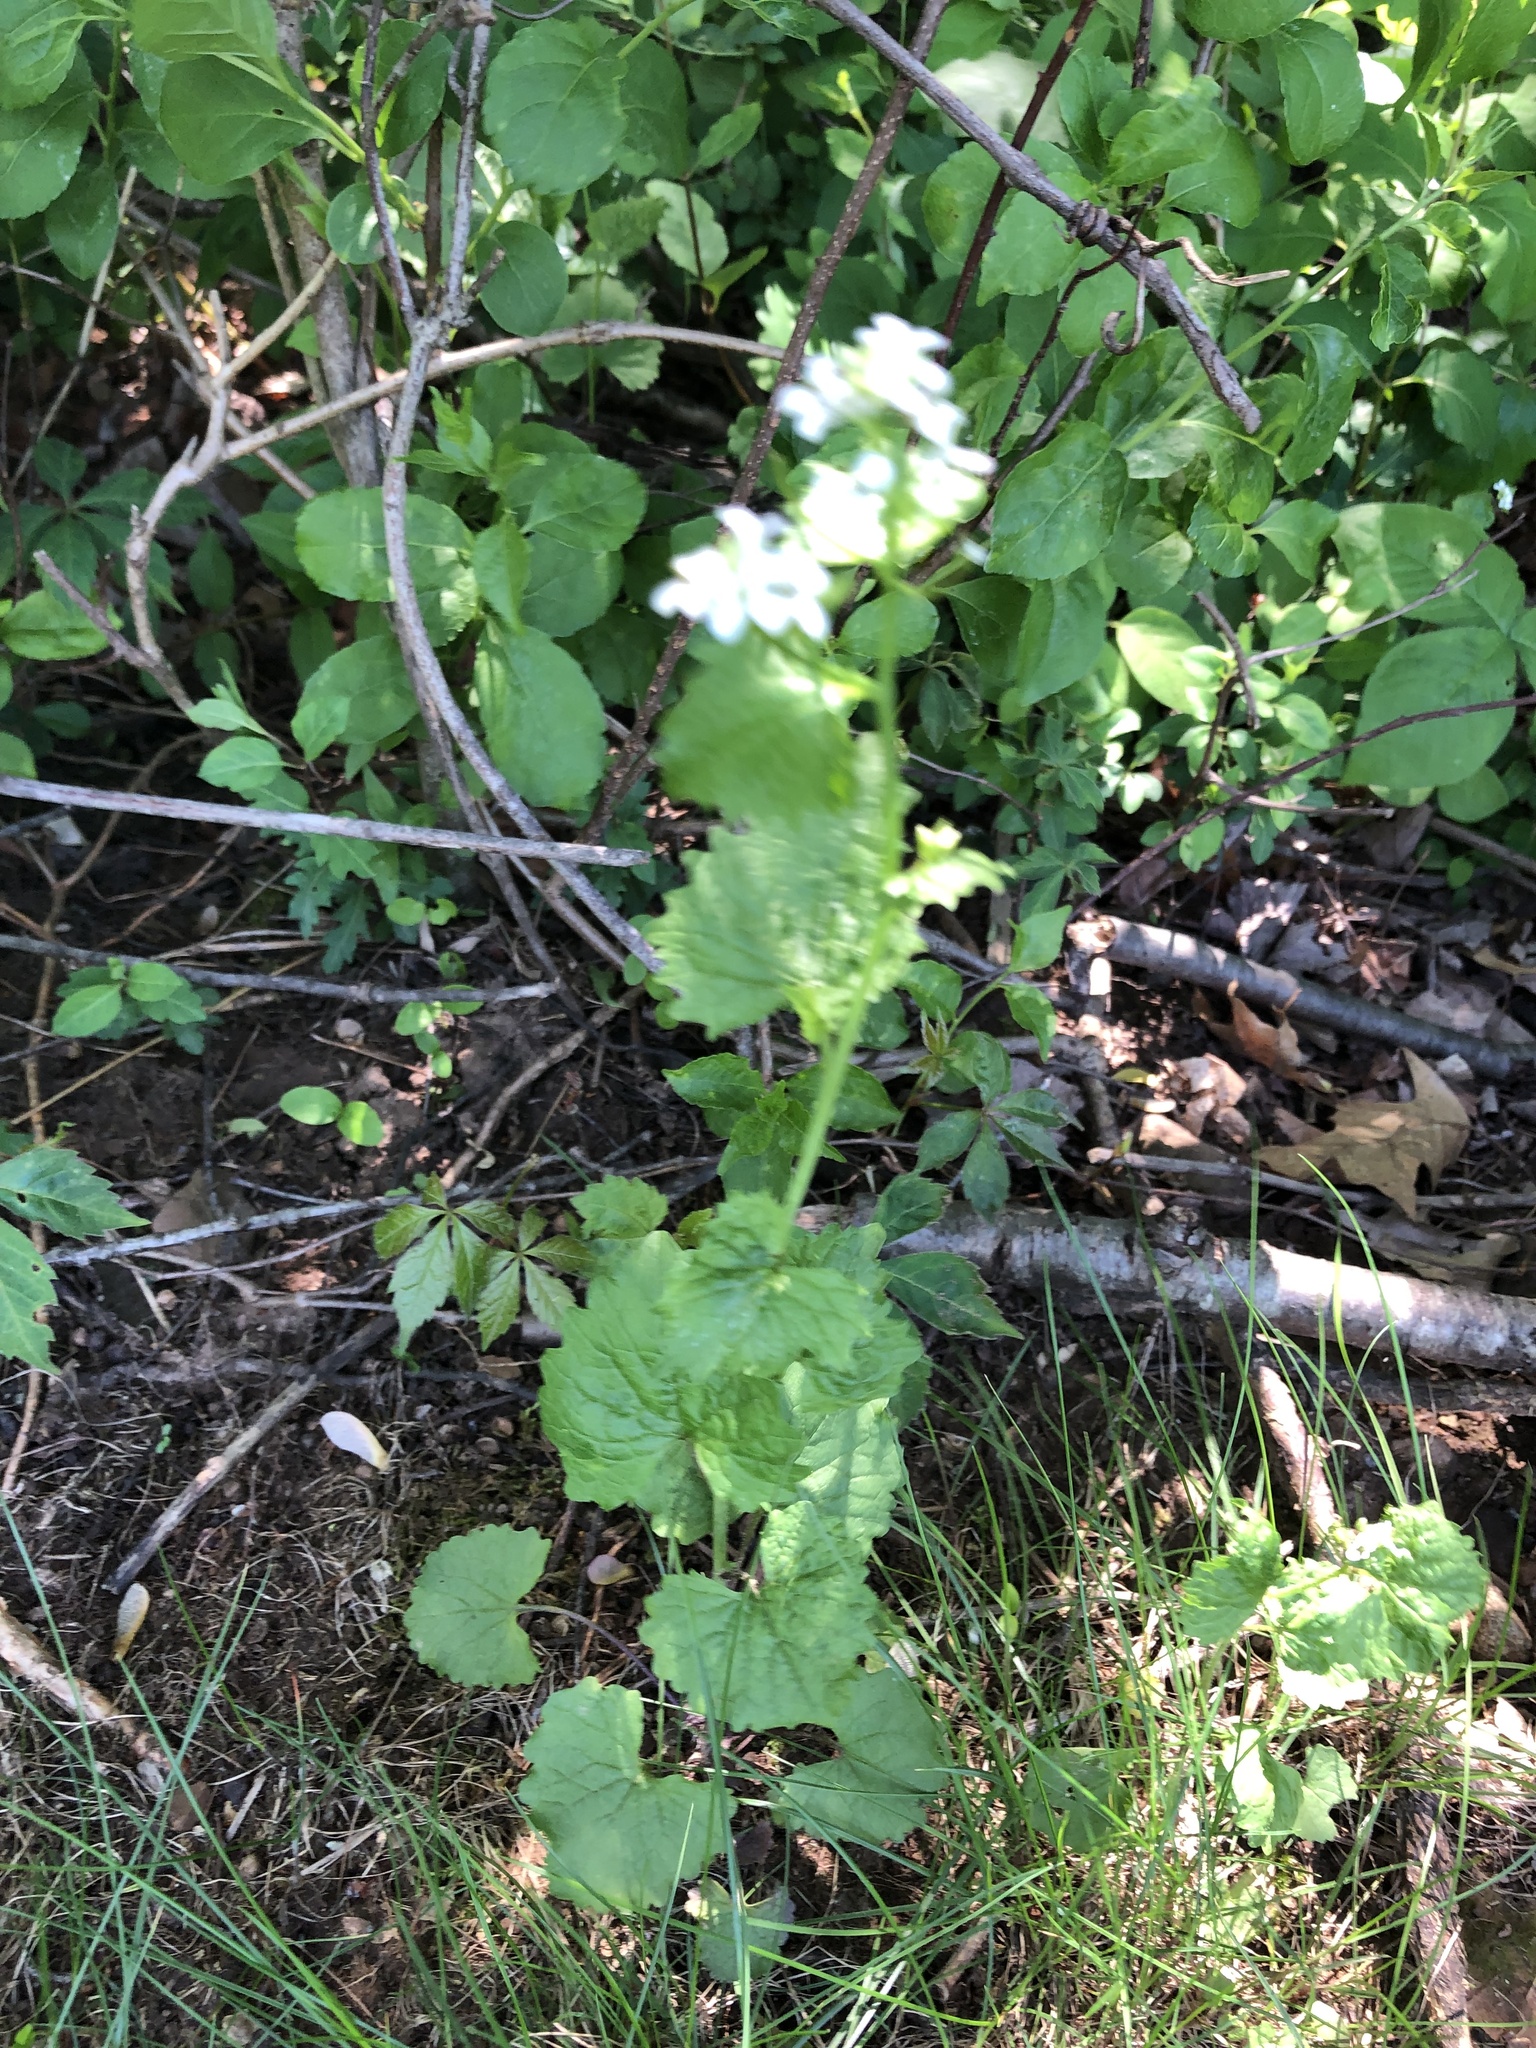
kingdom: Plantae
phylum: Tracheophyta
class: Magnoliopsida
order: Brassicales
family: Brassicaceae
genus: Alliaria
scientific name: Alliaria petiolata
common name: Garlic mustard
